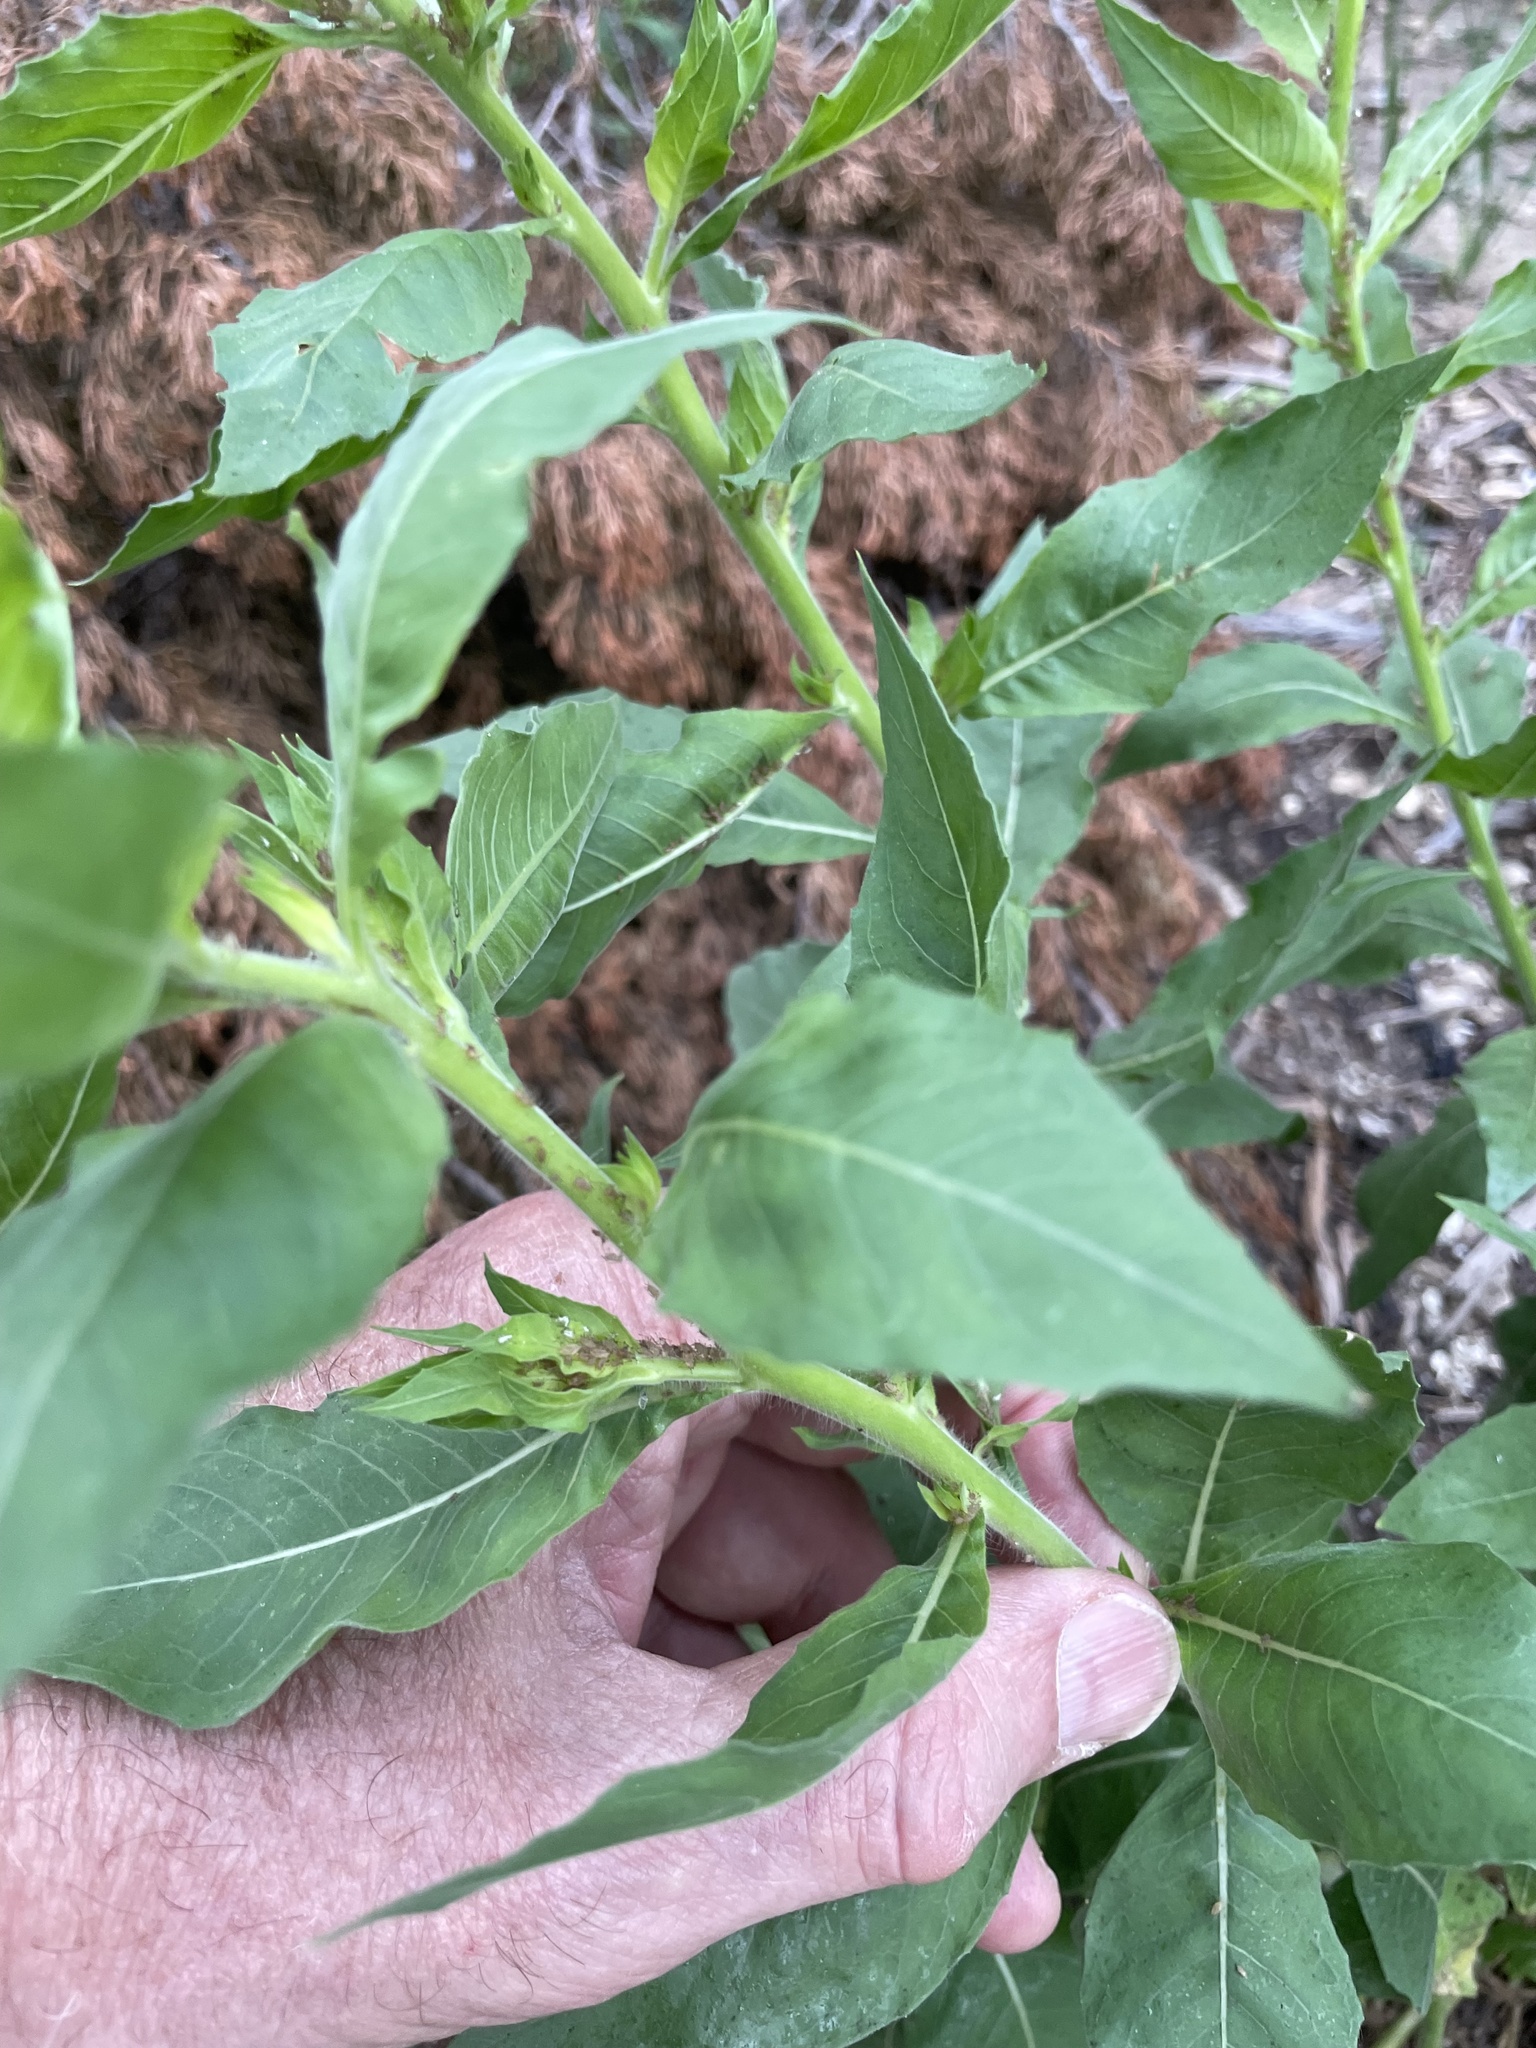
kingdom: Plantae
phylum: Tracheophyta
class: Magnoliopsida
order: Myrtales
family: Onagraceae
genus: Oenothera
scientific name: Oenothera curtiflora
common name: Velvetweed
